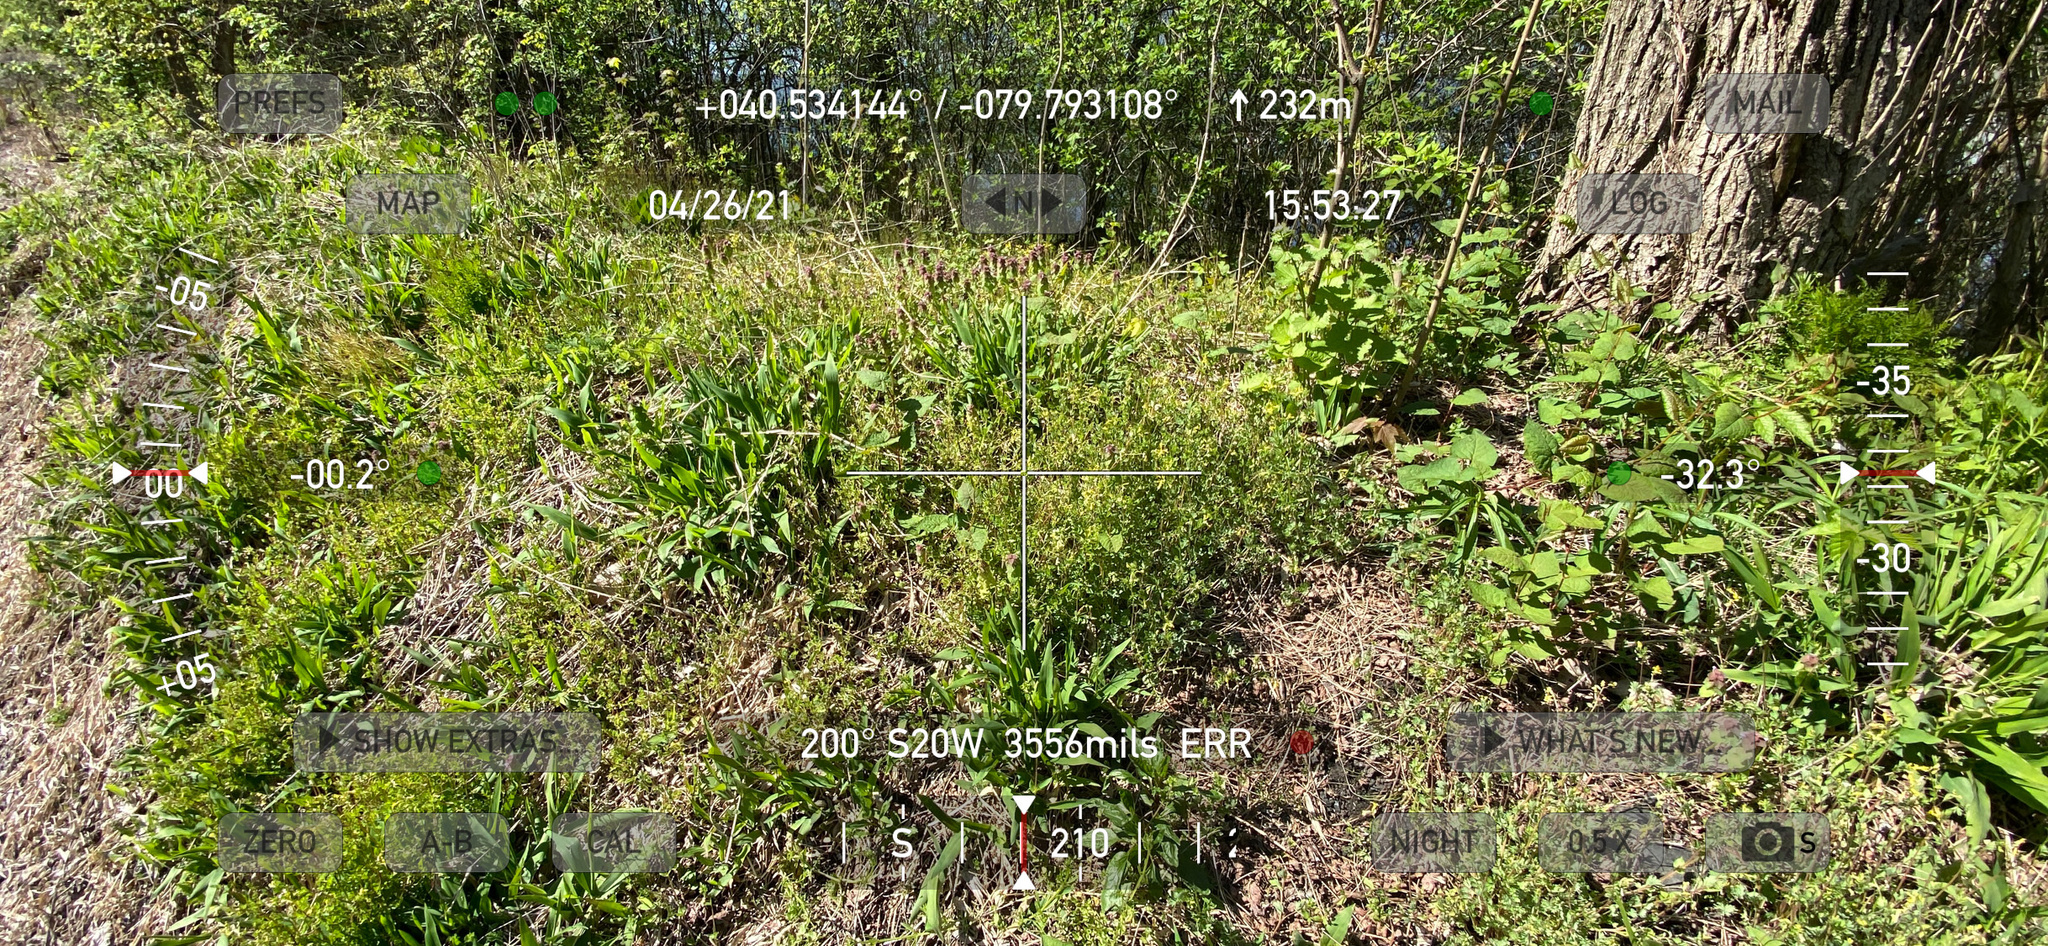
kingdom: Plantae
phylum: Tracheophyta
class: Magnoliopsida
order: Ranunculales
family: Papaveraceae
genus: Corydalis
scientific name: Corydalis flavula
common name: Yellow corydalis
